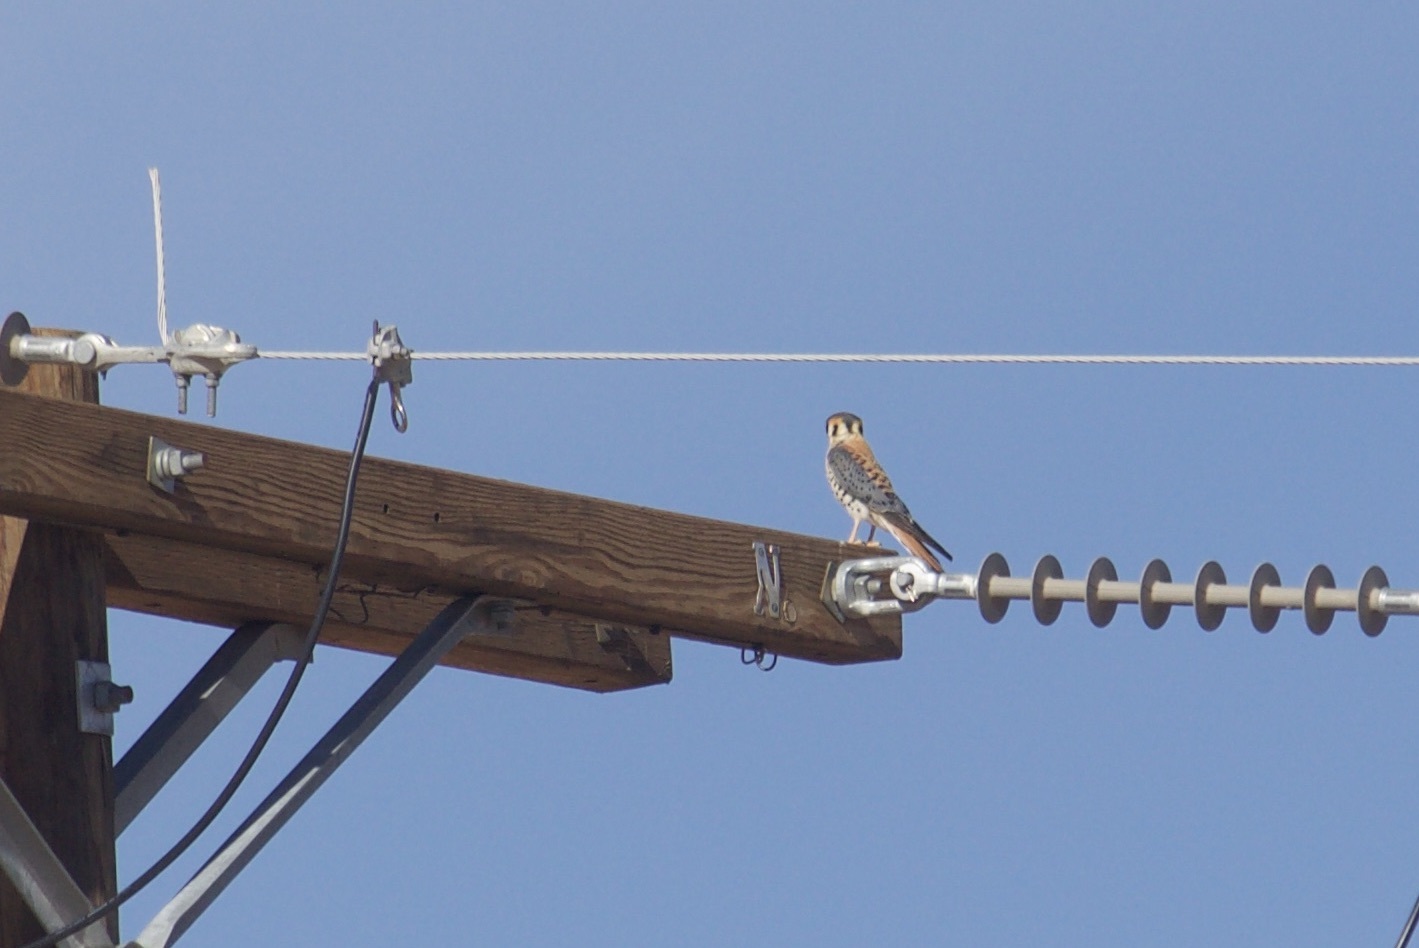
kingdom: Animalia
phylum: Chordata
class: Aves
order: Falconiformes
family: Falconidae
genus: Falco
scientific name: Falco sparverius
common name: American kestrel
